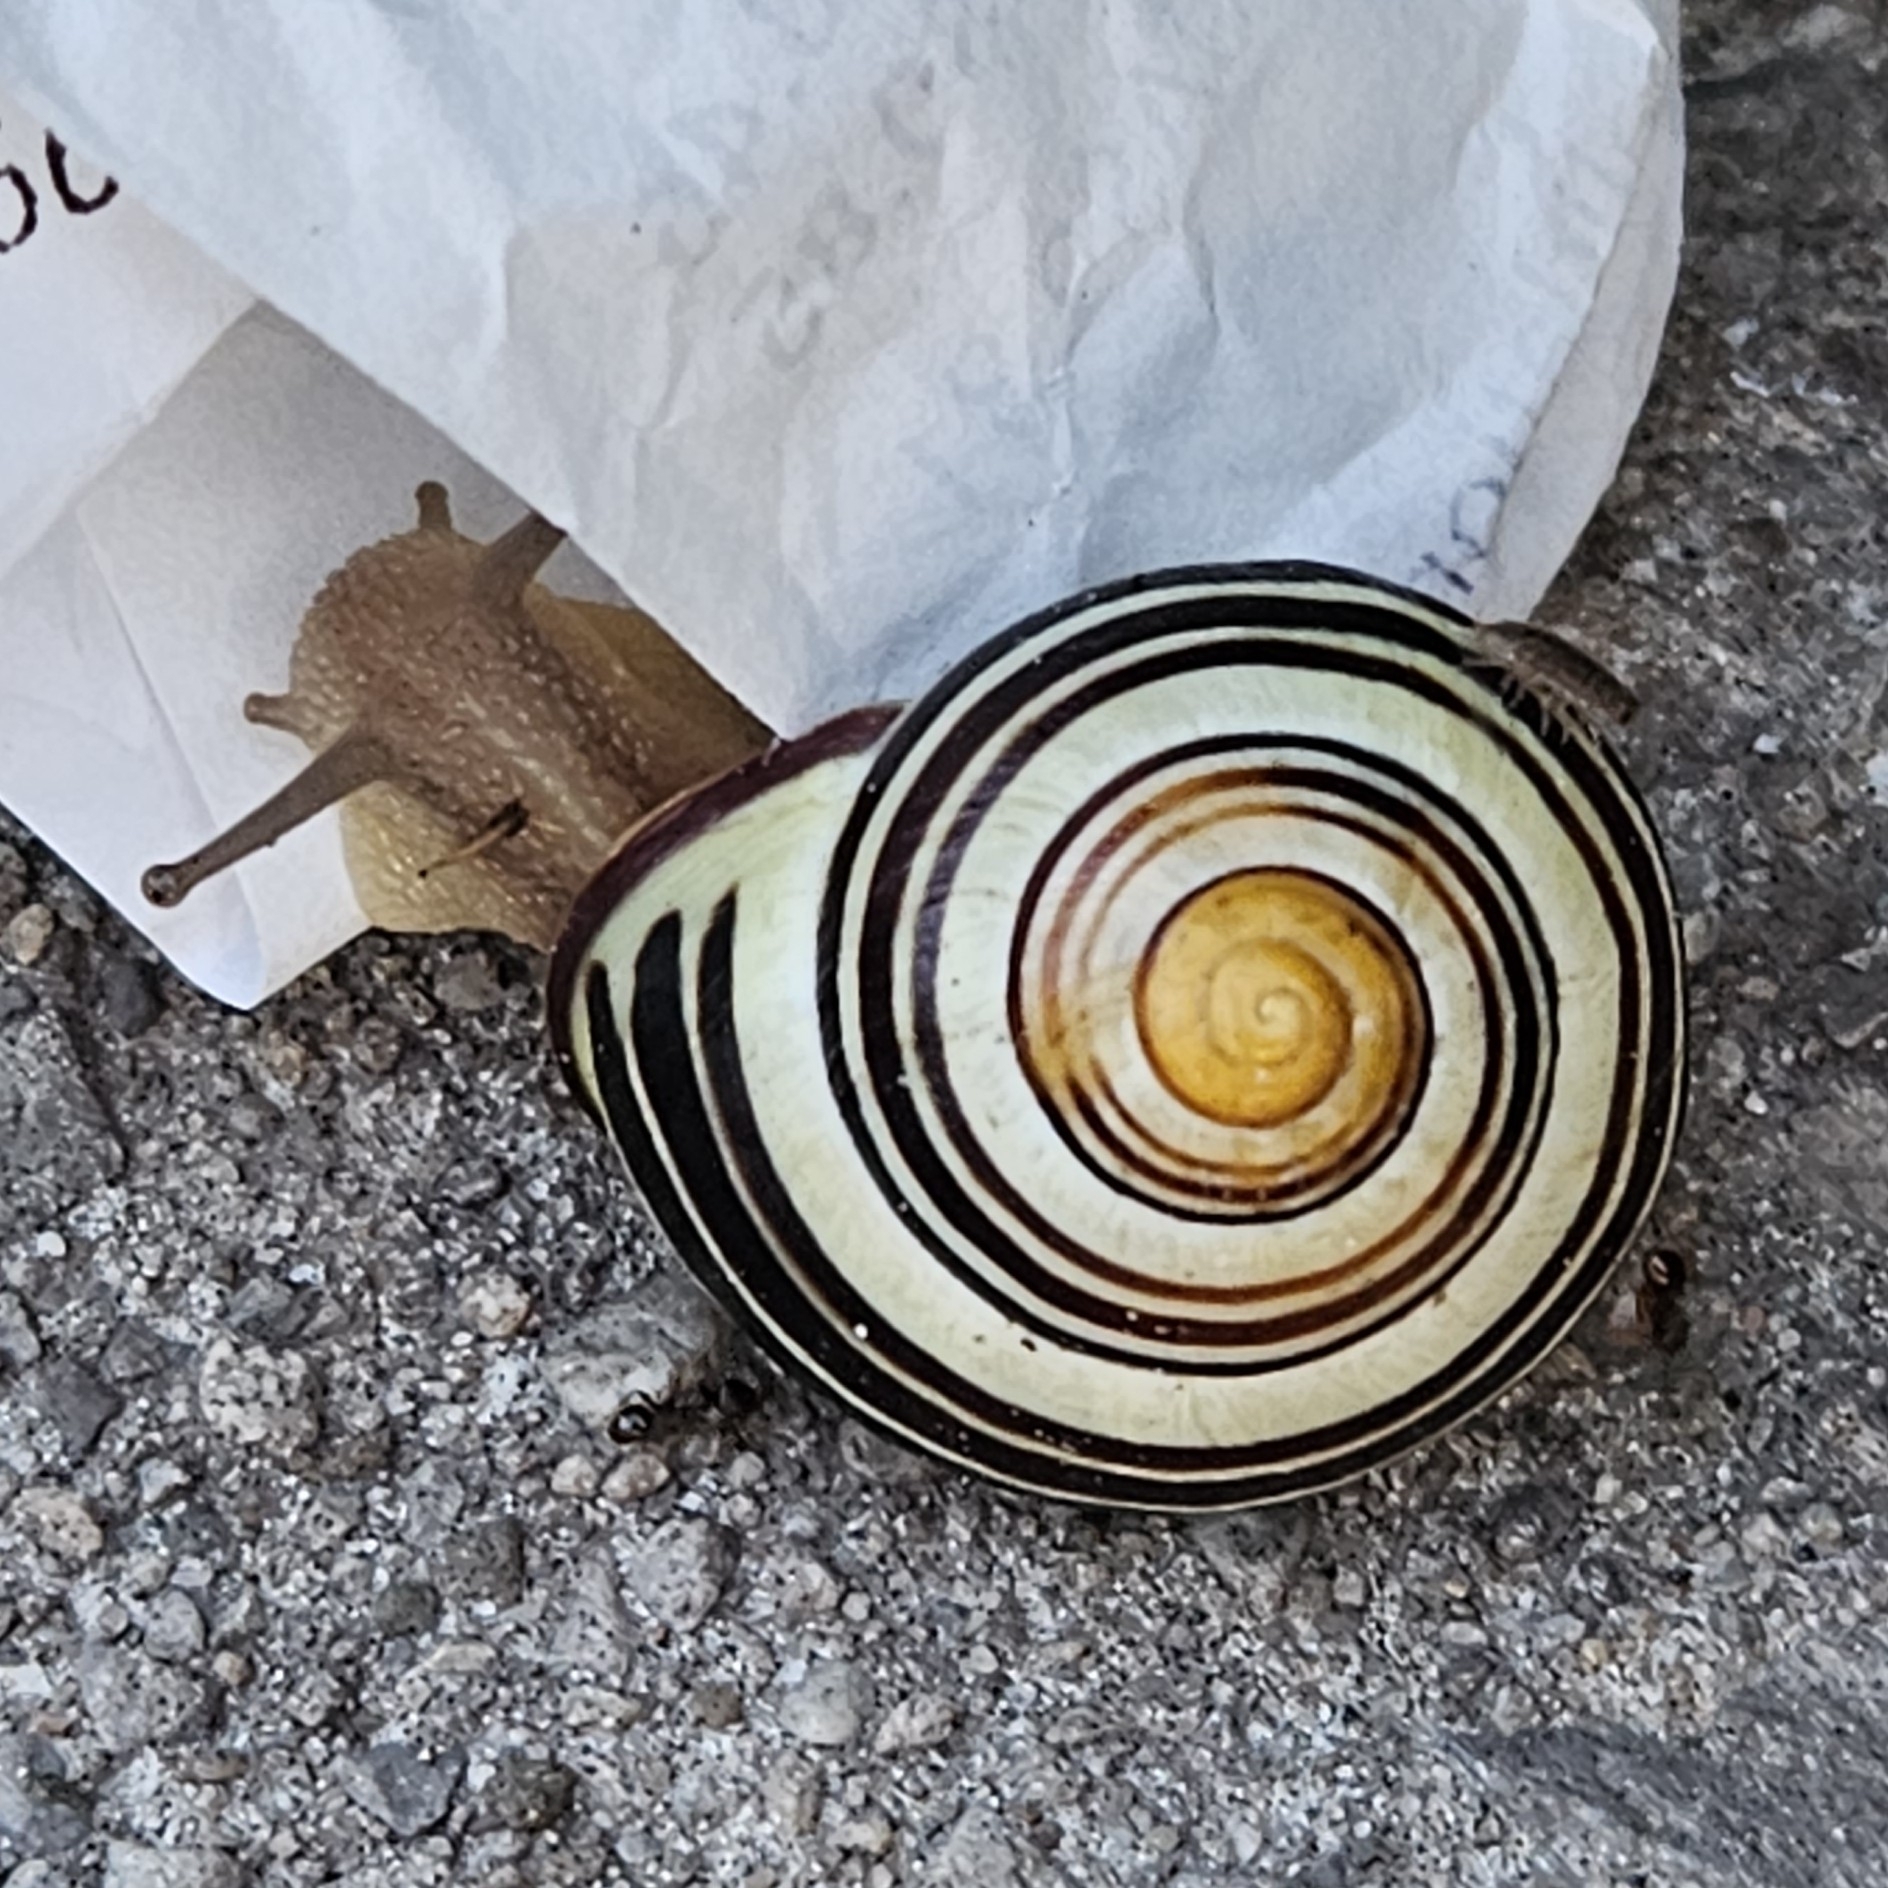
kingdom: Animalia
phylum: Mollusca
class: Gastropoda
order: Stylommatophora
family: Helicidae
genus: Cepaea
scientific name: Cepaea nemoralis
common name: Grovesnail
